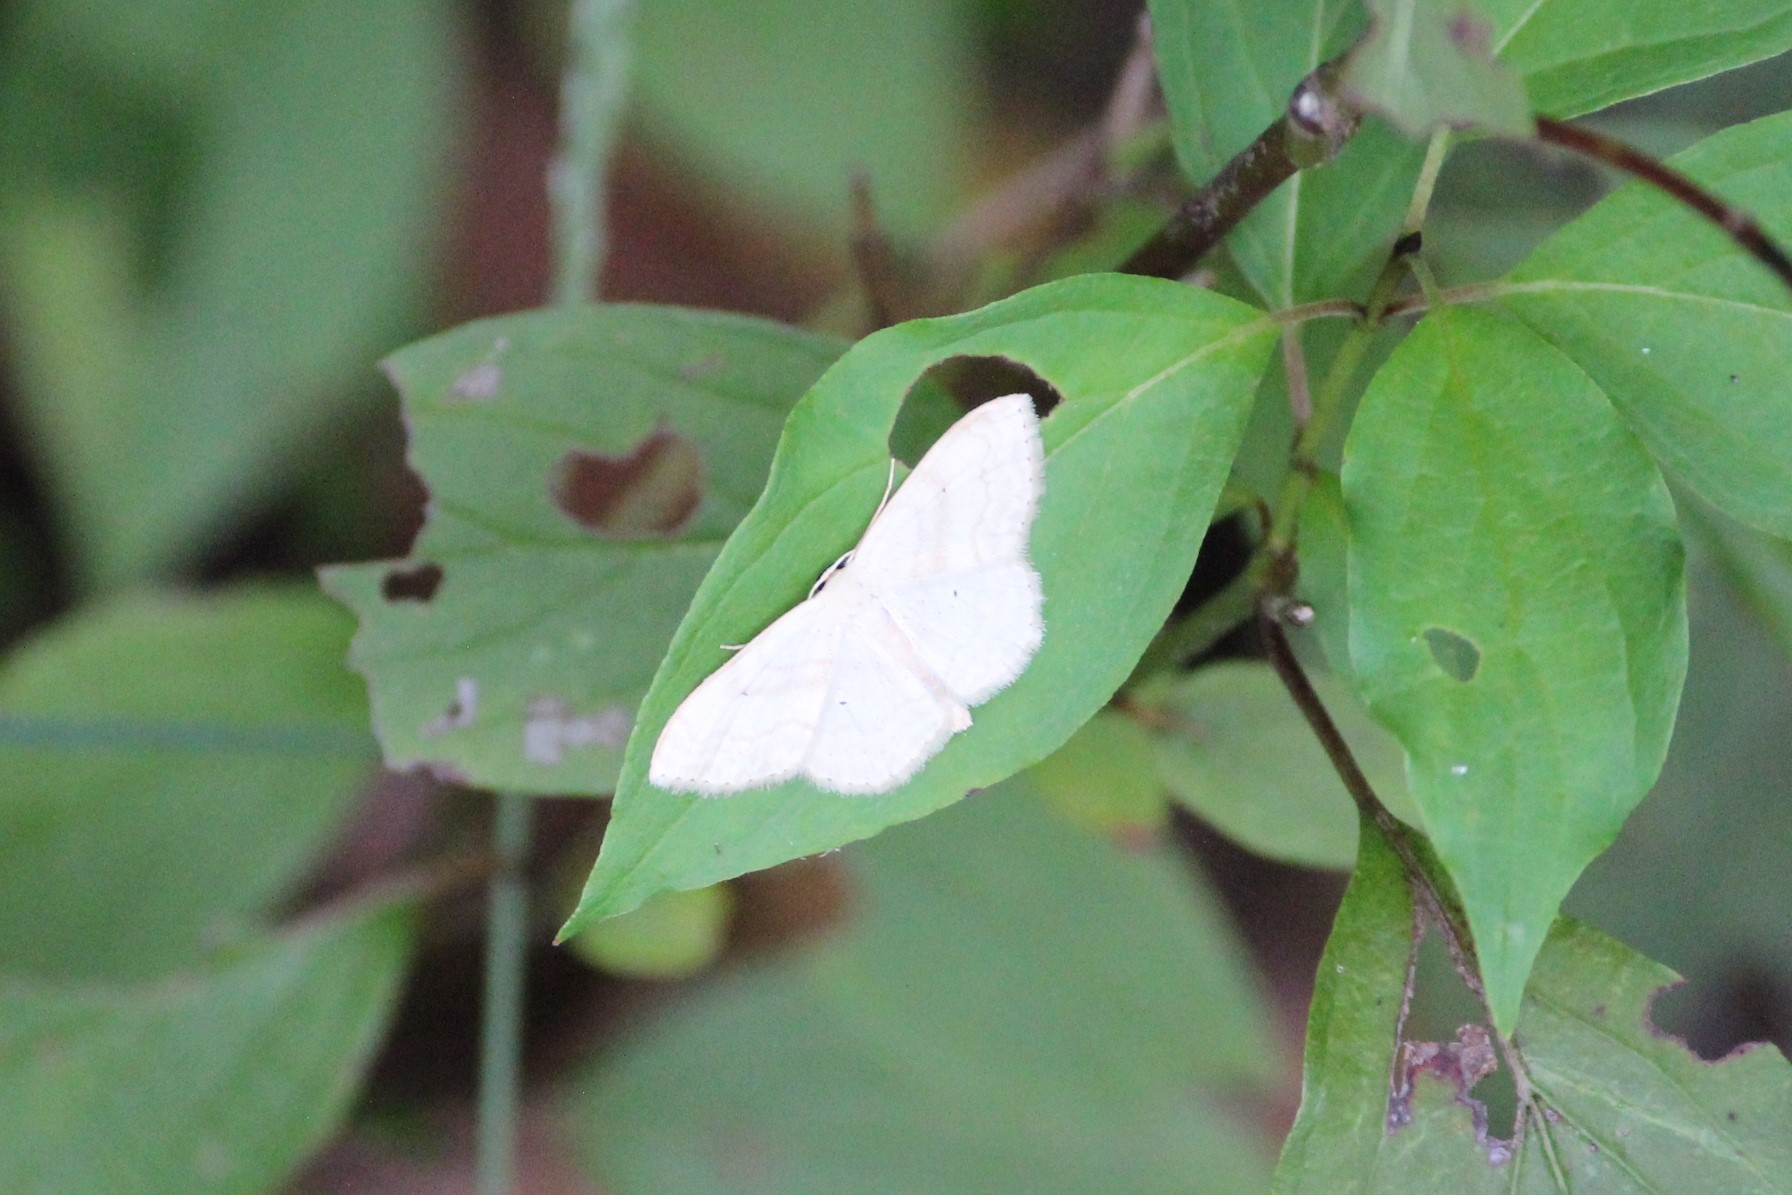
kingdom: Animalia
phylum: Arthropoda
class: Insecta
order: Lepidoptera
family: Geometridae
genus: Scopula
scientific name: Scopula limboundata
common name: Large lace border
